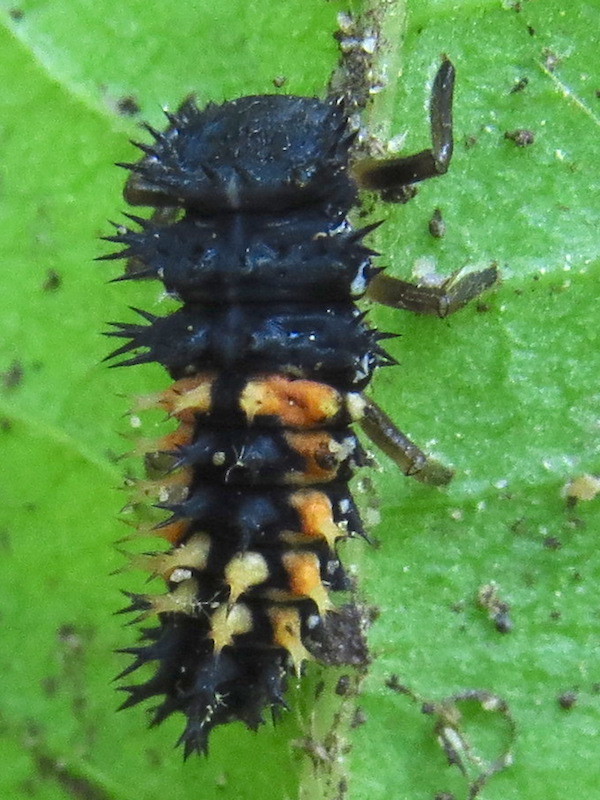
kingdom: Animalia
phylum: Arthropoda
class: Insecta
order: Coleoptera
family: Coccinellidae
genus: Harmonia
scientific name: Harmonia axyridis
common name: Harlequin ladybird
